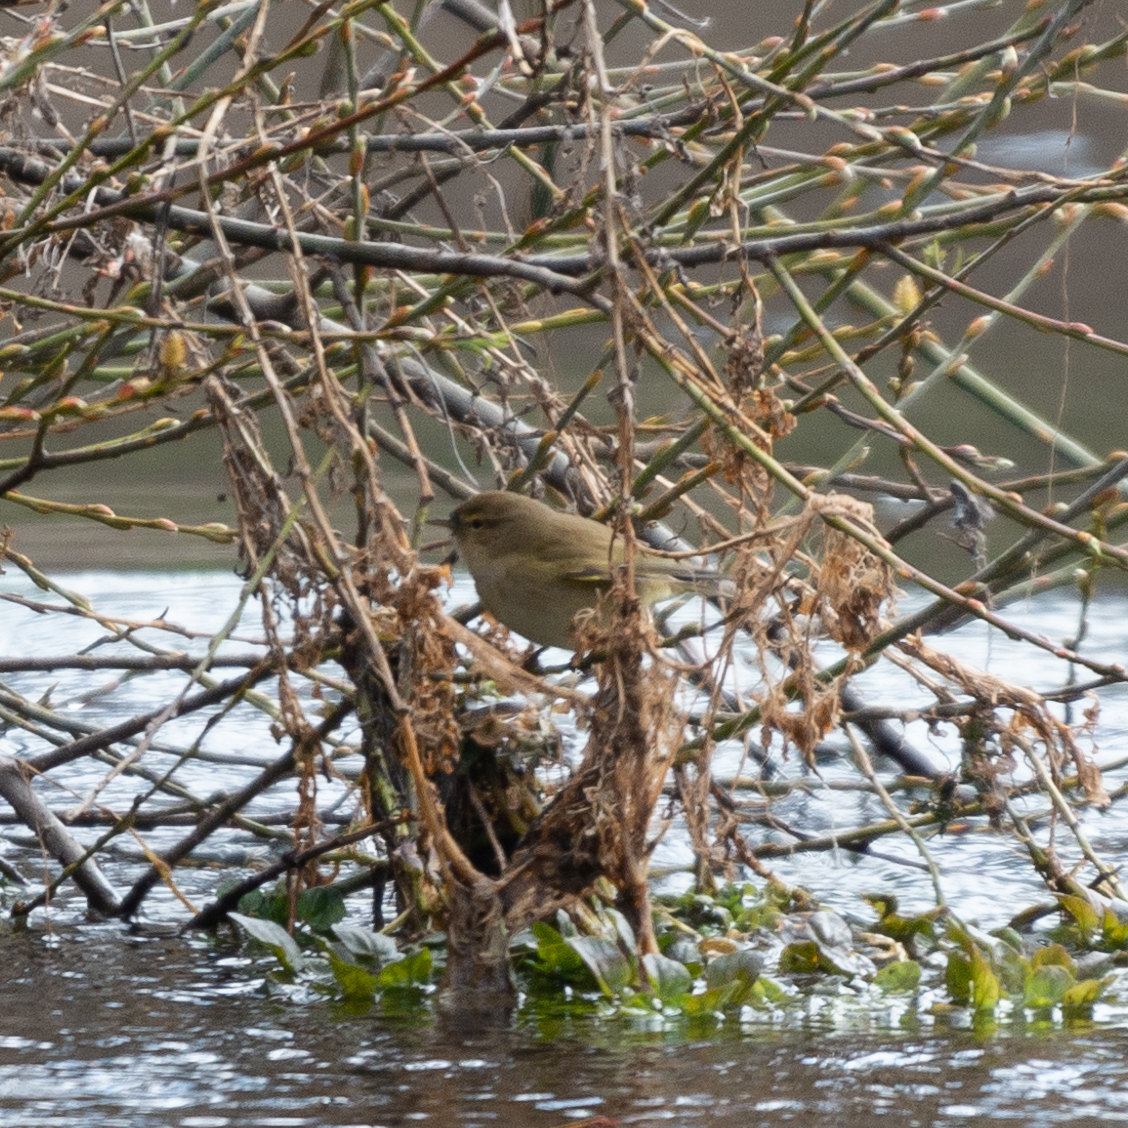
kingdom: Animalia
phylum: Chordata
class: Aves
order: Passeriformes
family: Phylloscopidae
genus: Phylloscopus
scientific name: Phylloscopus collybita
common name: Common chiffchaff
